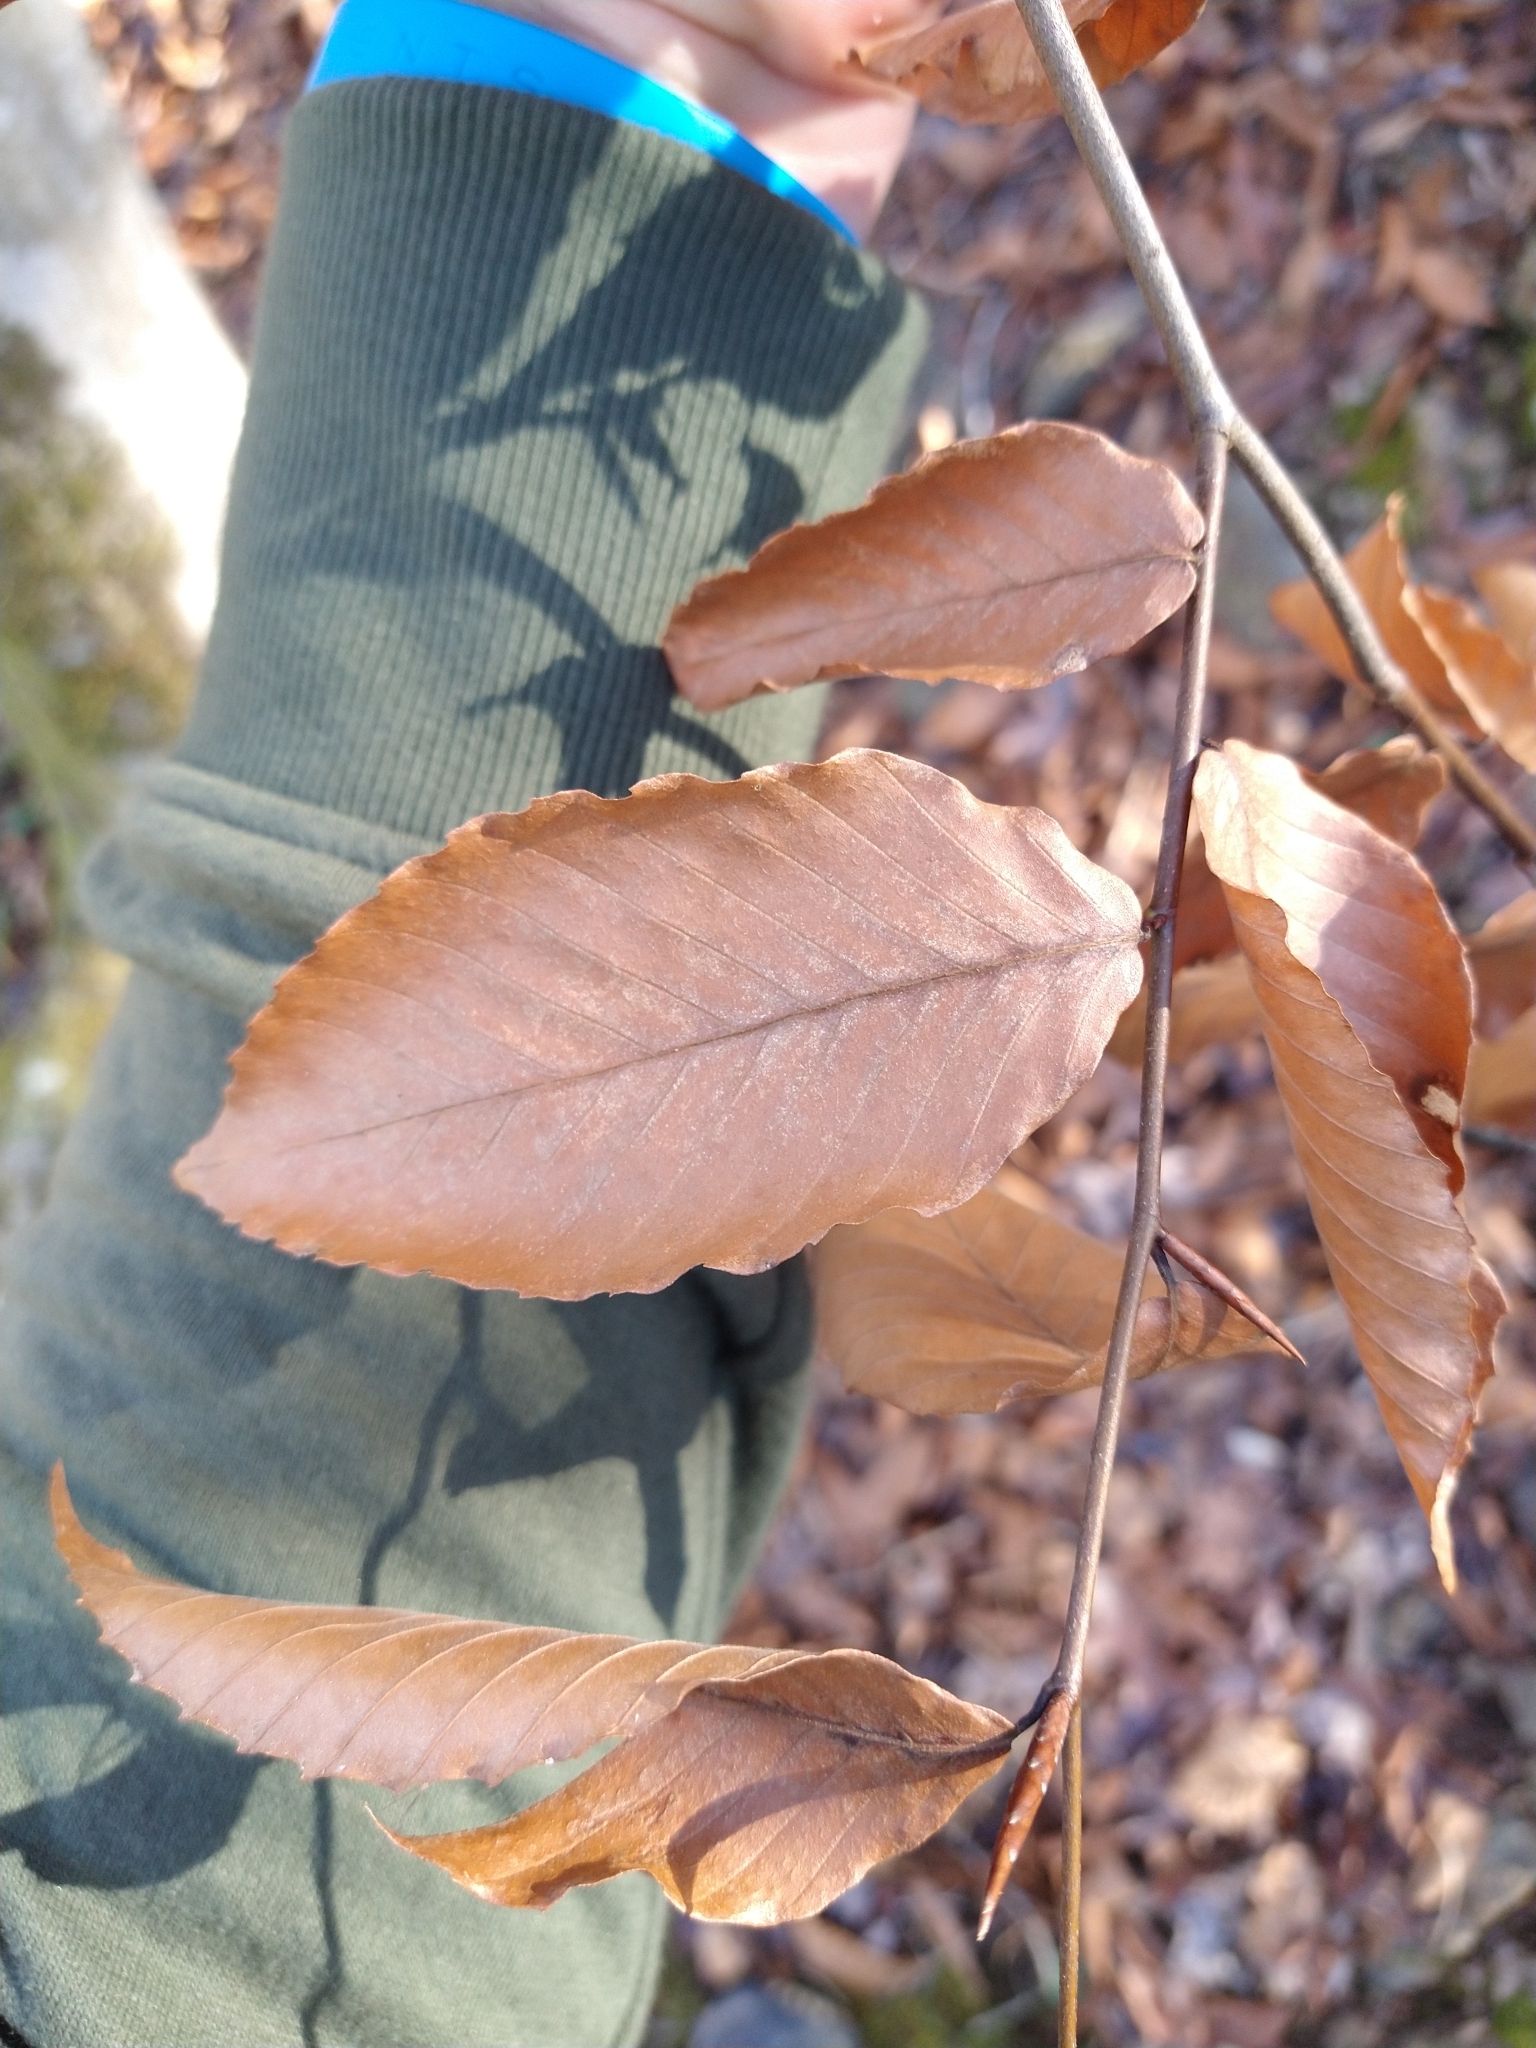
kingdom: Plantae
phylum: Tracheophyta
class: Magnoliopsida
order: Fagales
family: Fagaceae
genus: Fagus
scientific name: Fagus grandifolia
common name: American beech
